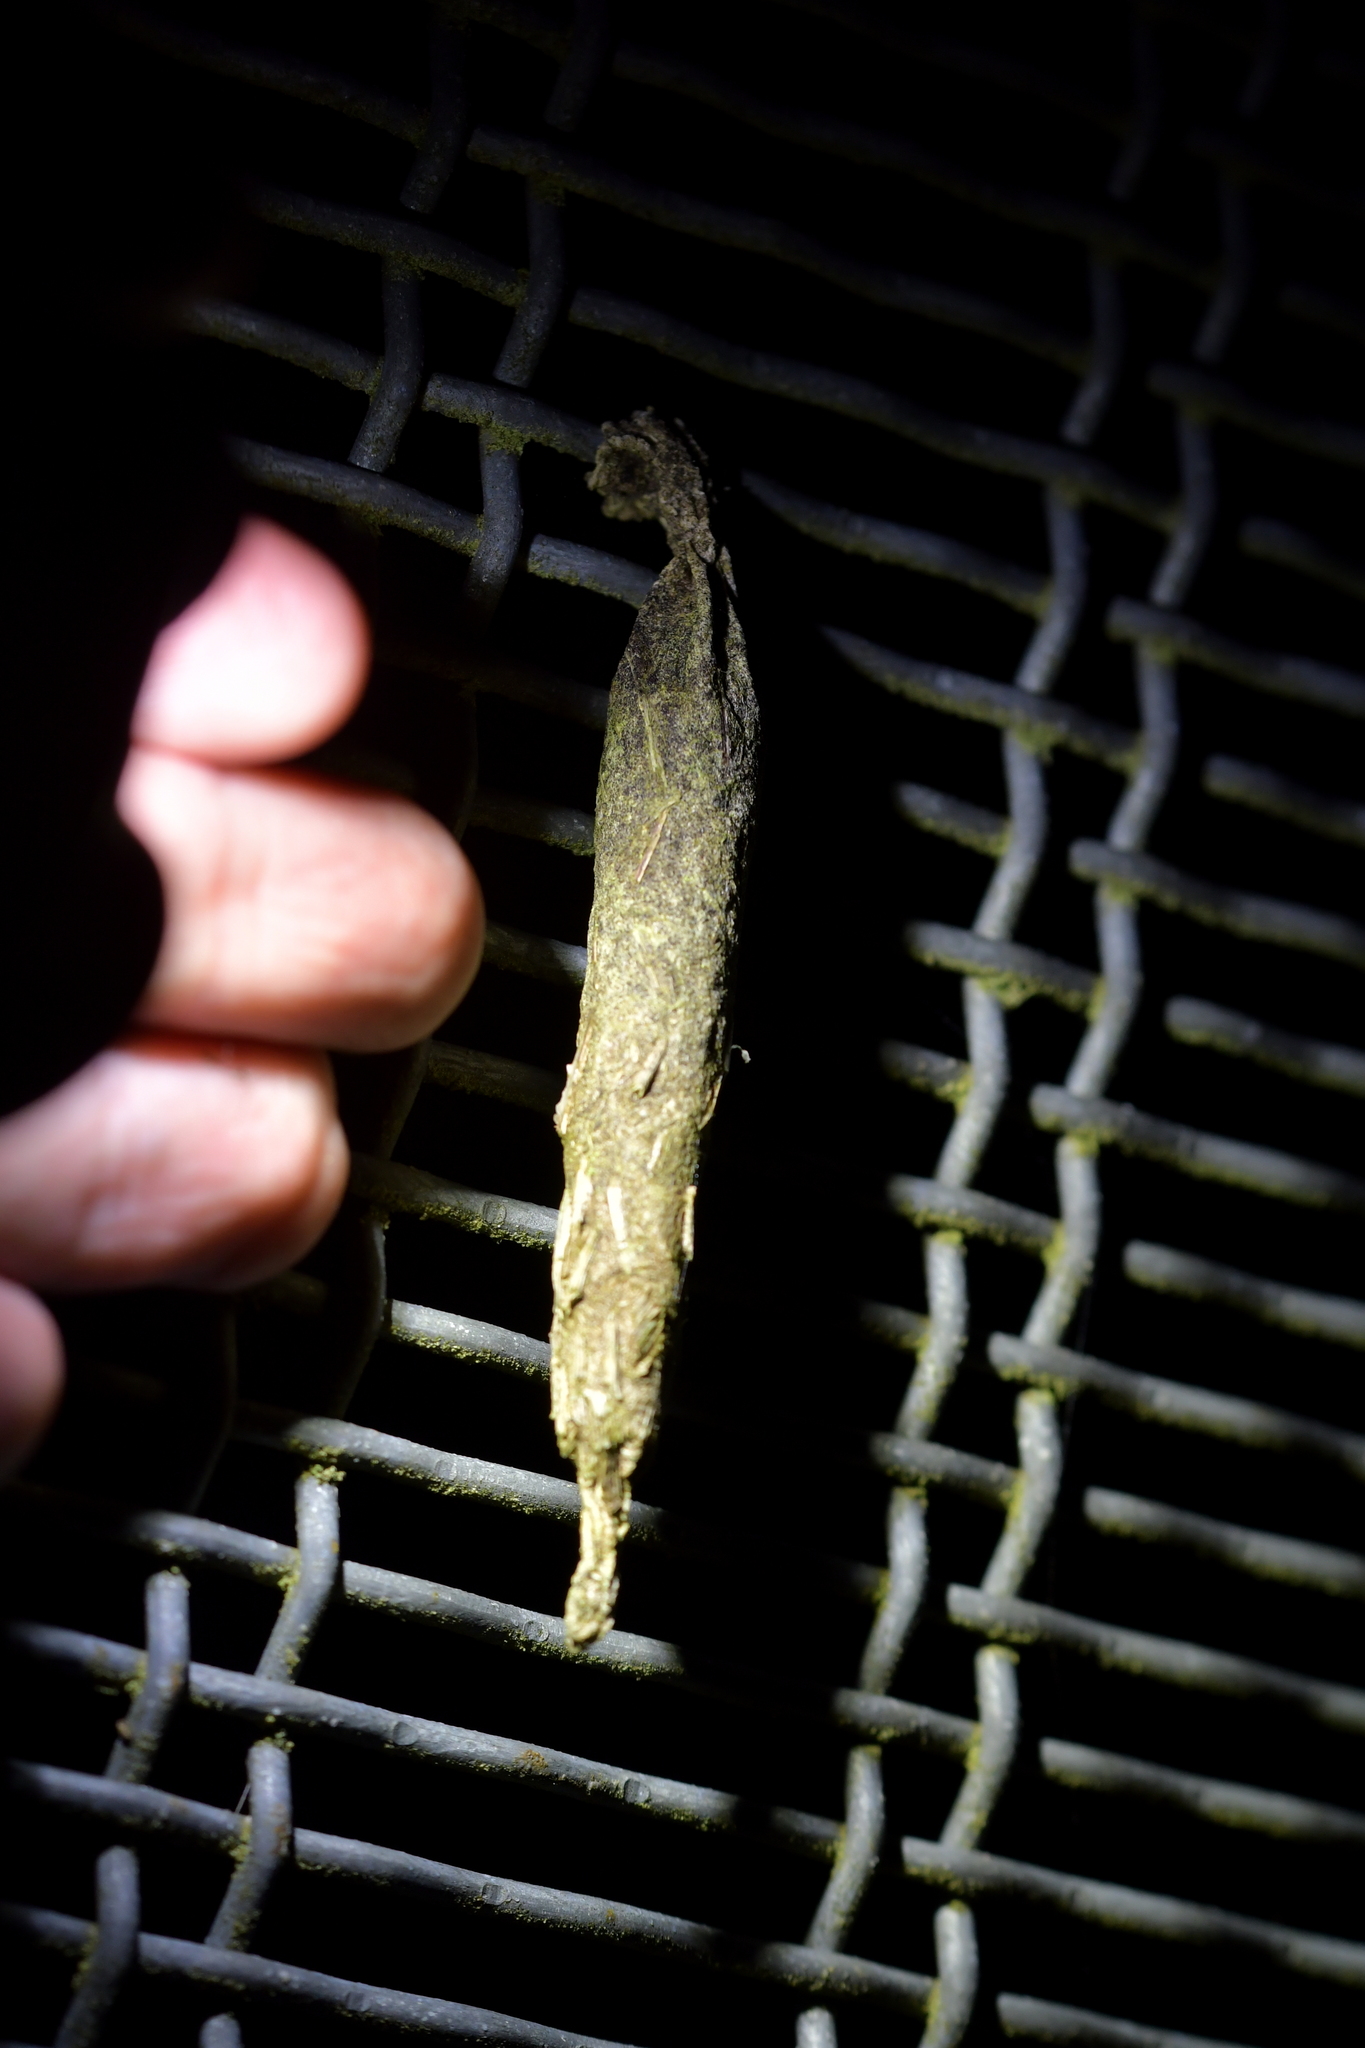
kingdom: Animalia
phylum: Arthropoda
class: Insecta
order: Lepidoptera
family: Psychidae
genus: Liothula
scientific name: Liothula omnivora
